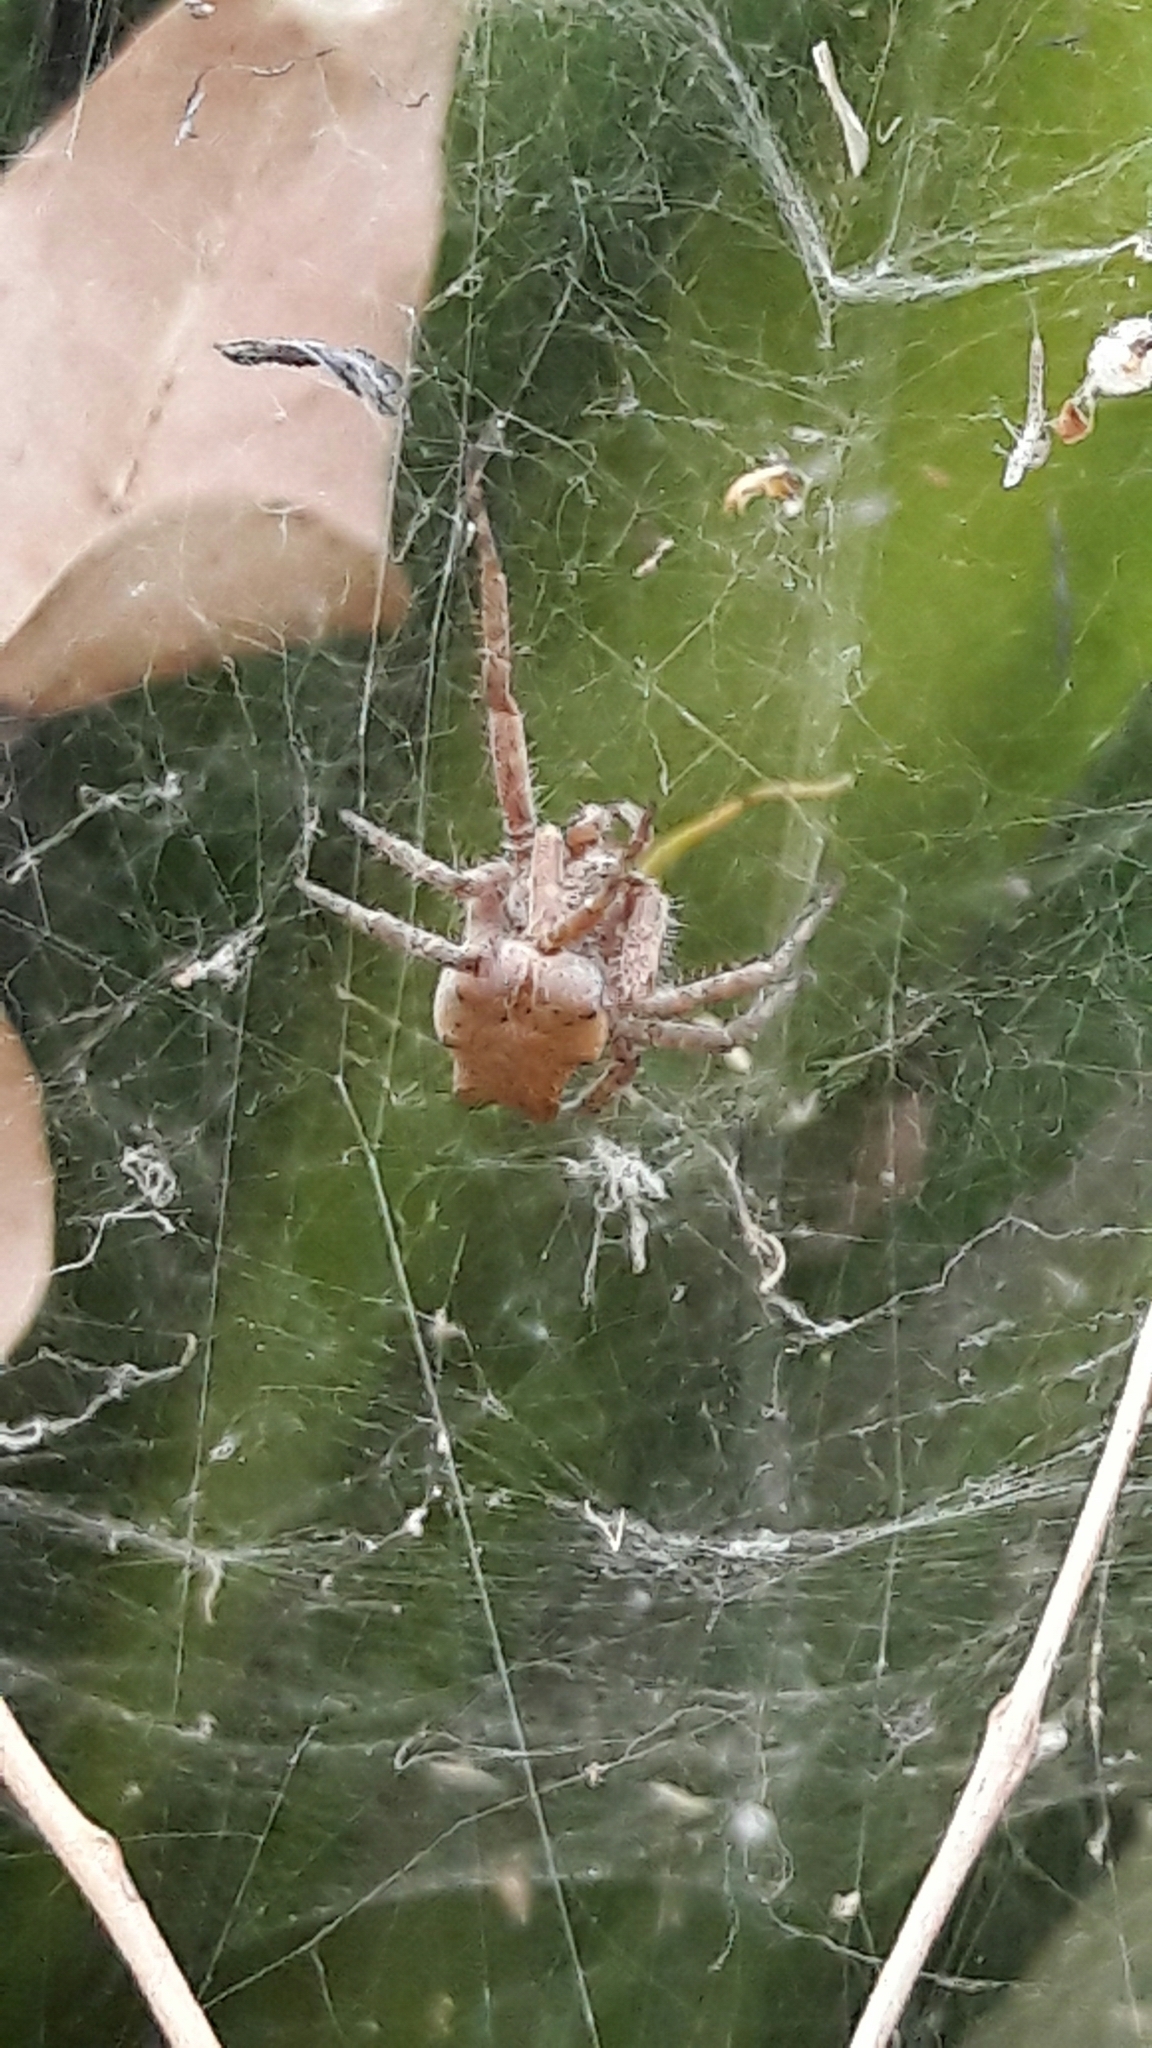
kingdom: Animalia
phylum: Arthropoda
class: Arachnida
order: Araneae
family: Araneidae
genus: Cyrtophora
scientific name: Cyrtophora citricola
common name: Orb weavers
